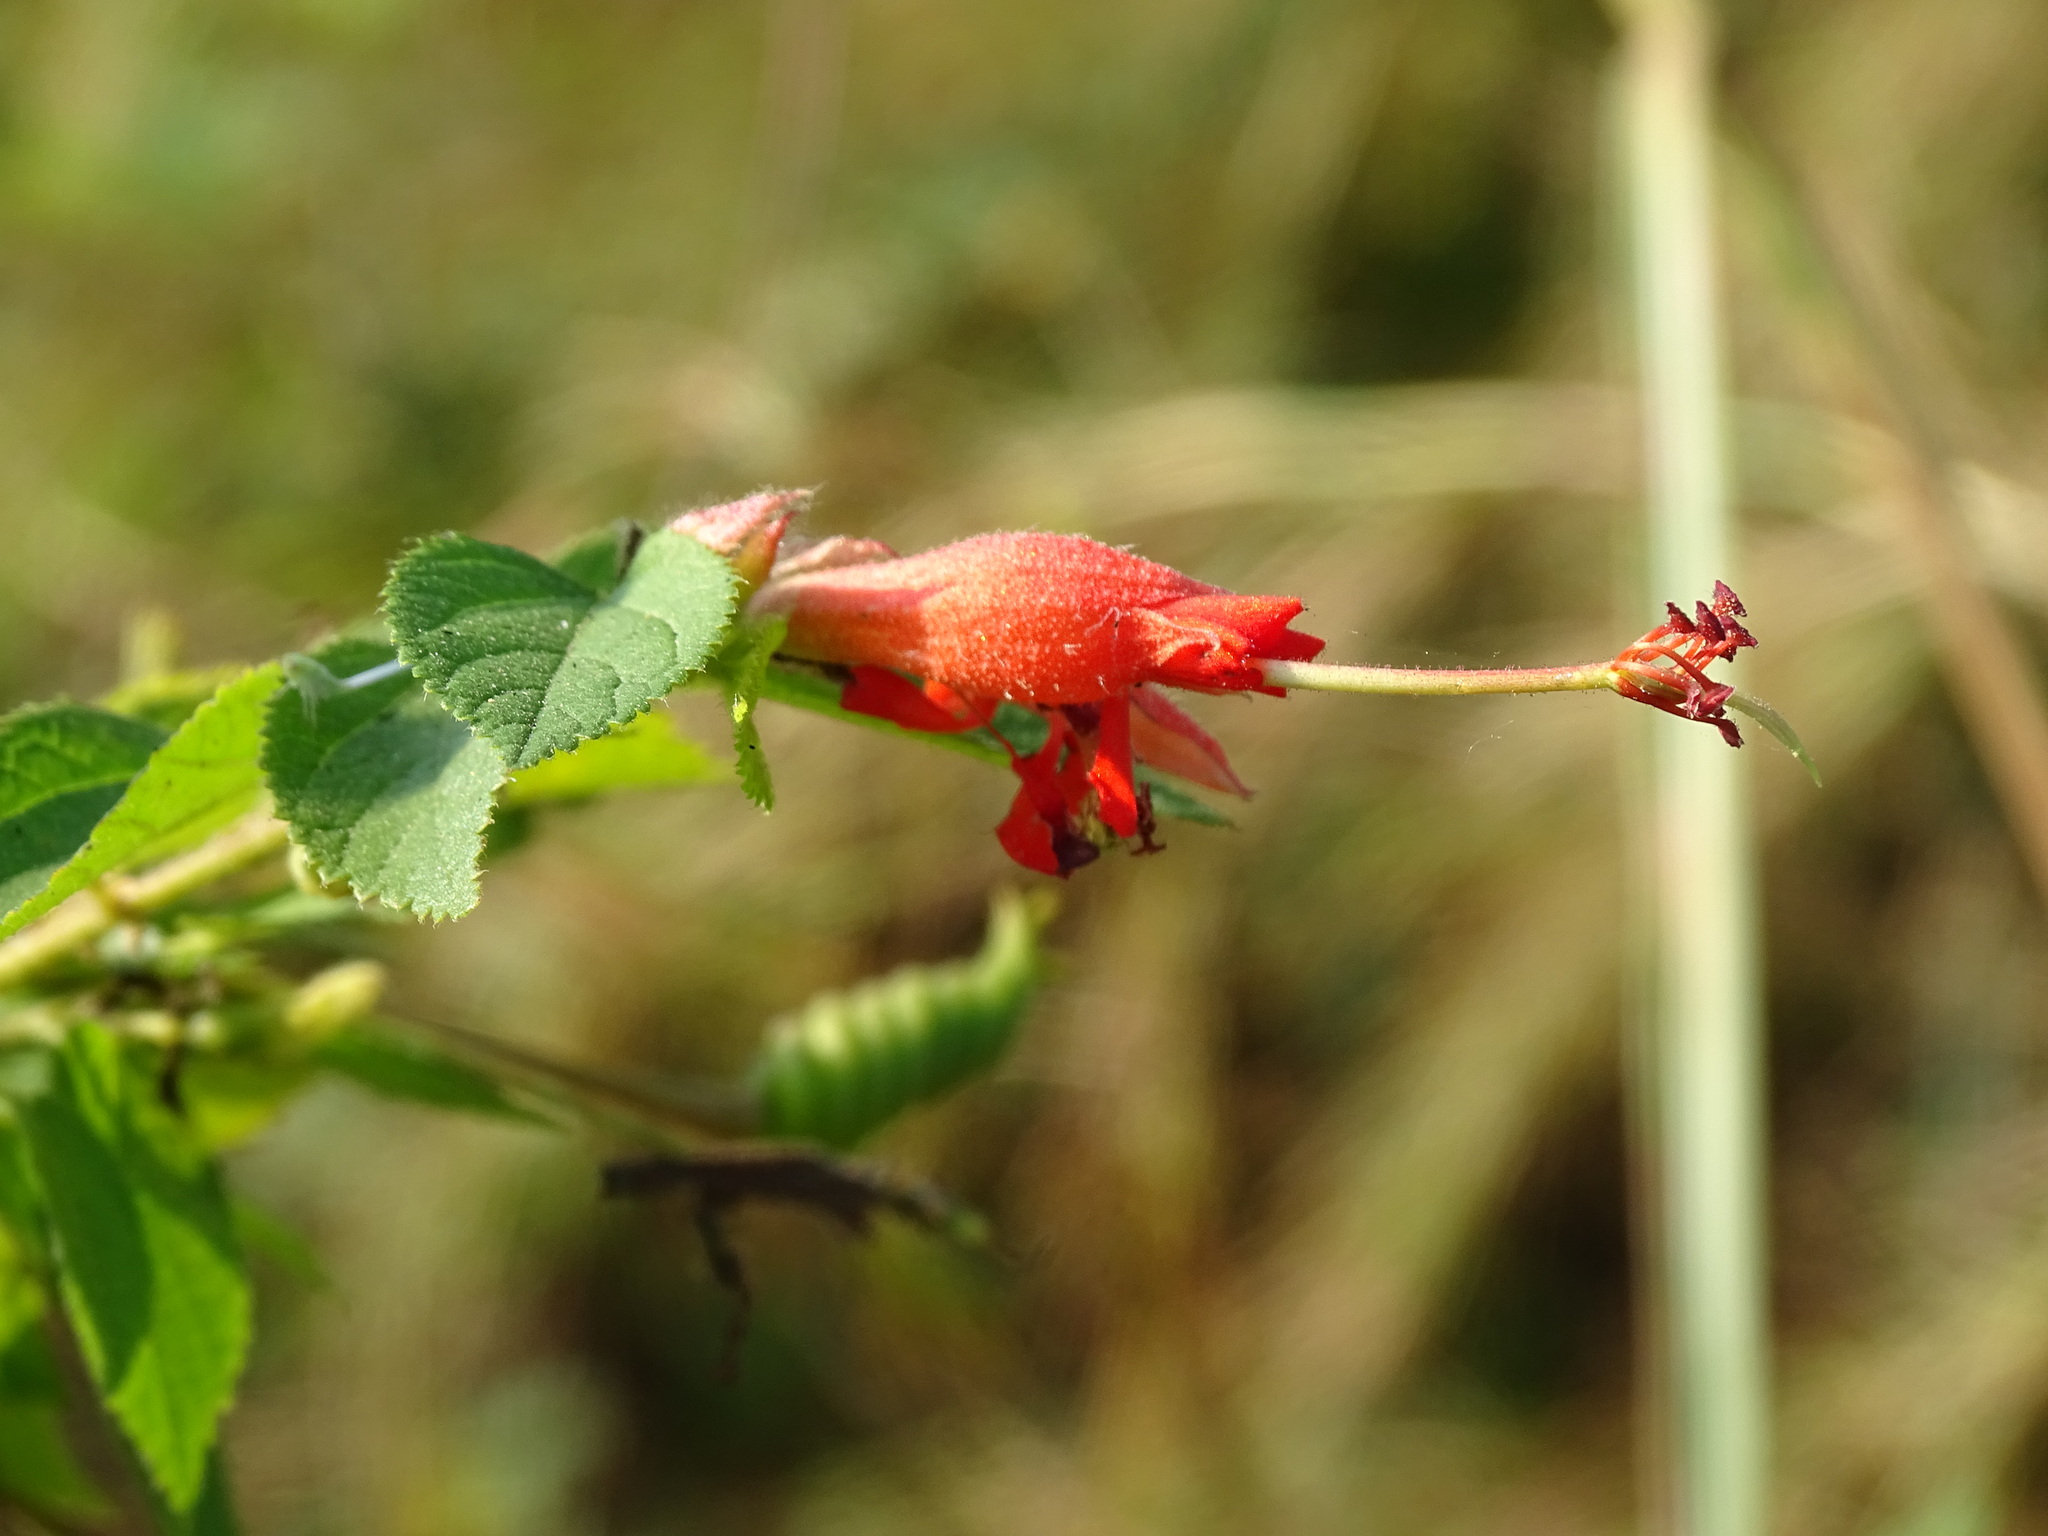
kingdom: Plantae
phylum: Tracheophyta
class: Magnoliopsida
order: Malvales
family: Malvaceae
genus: Helicteres
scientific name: Helicteres guazumifolia
